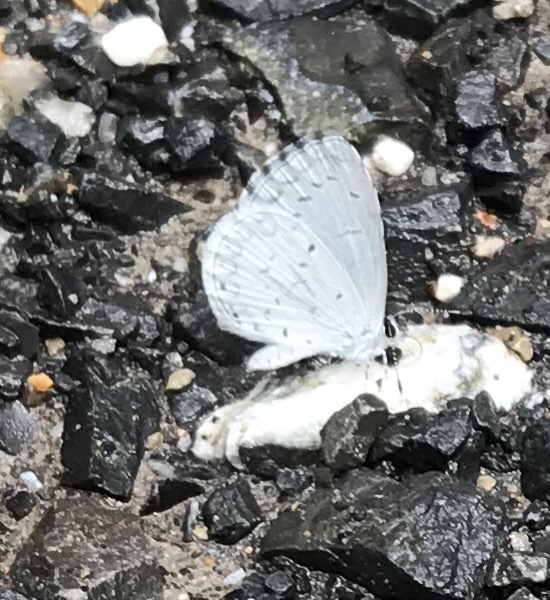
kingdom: Animalia
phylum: Arthropoda
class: Insecta
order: Lepidoptera
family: Lycaenidae
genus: Cyaniris
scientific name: Cyaniris neglecta
